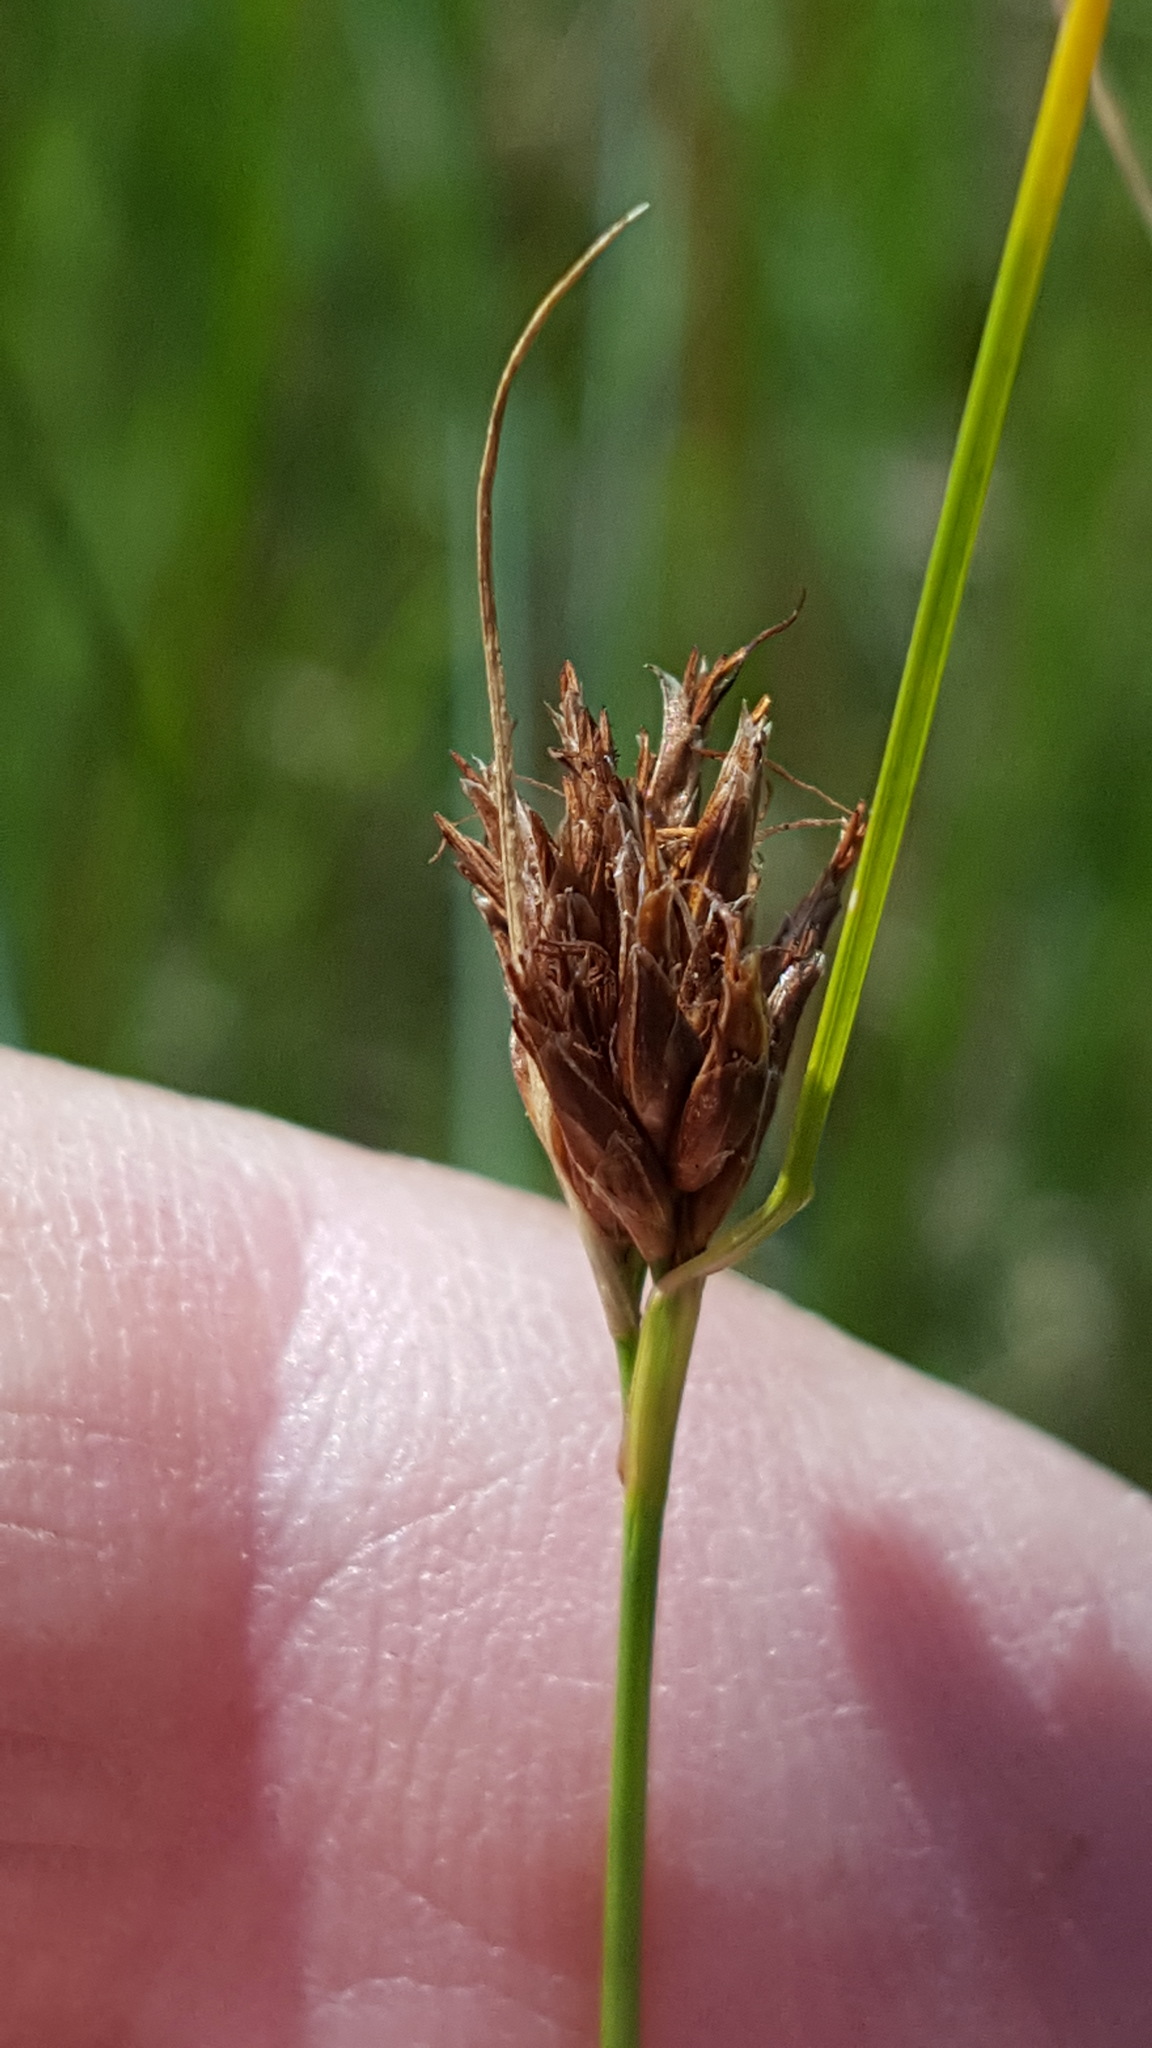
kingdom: Plantae
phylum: Tracheophyta
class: Liliopsida
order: Poales
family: Cyperaceae
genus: Rhynchospora
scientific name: Rhynchospora fusca
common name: Brown beak-sedge
